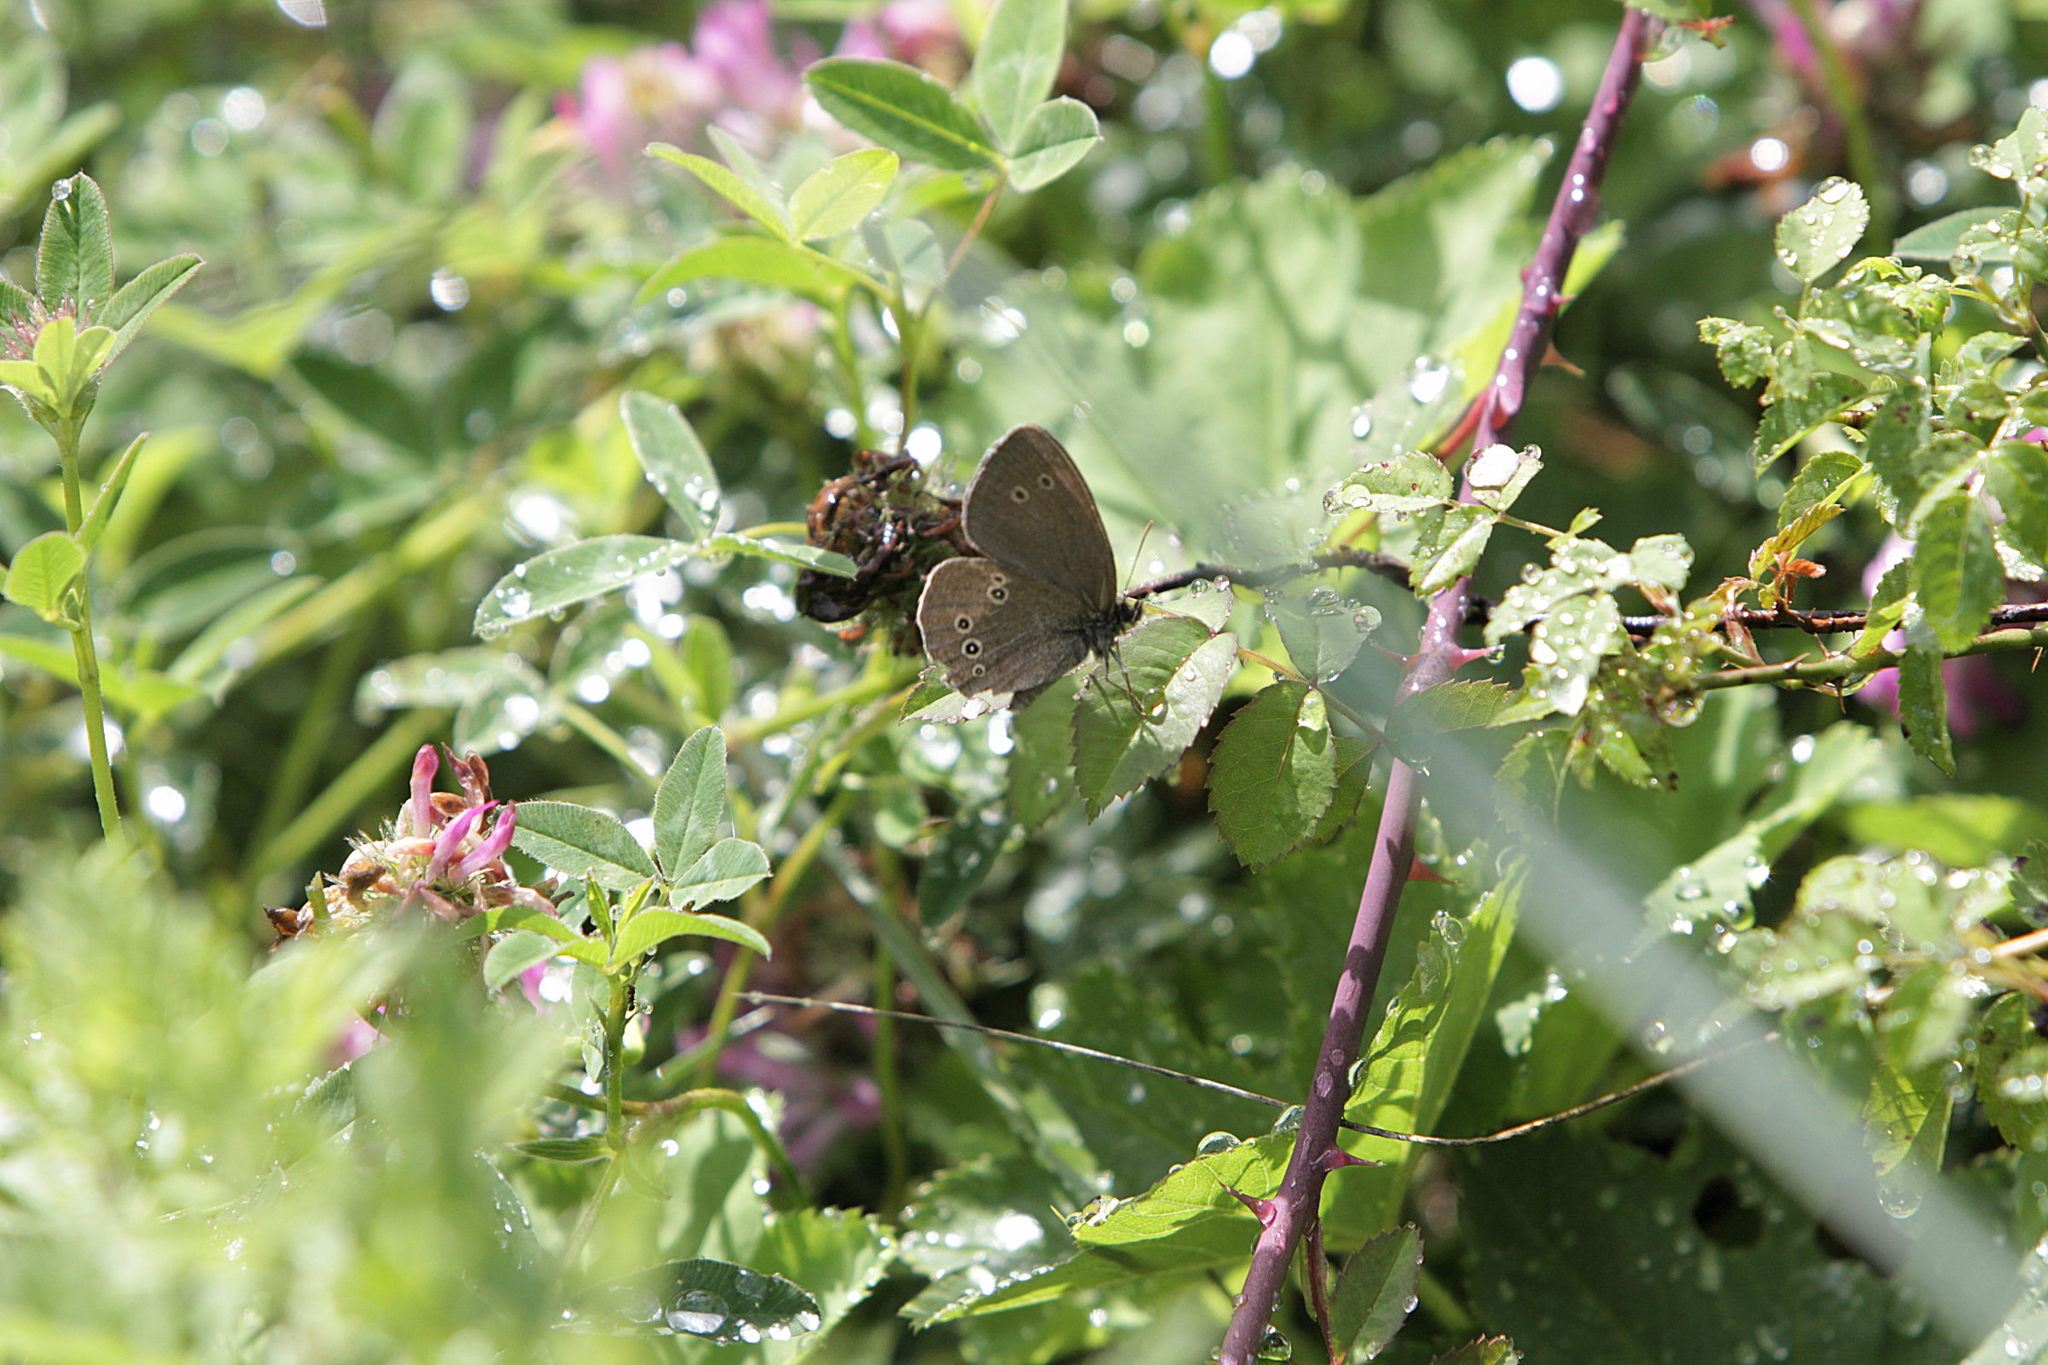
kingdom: Animalia
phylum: Arthropoda
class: Insecta
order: Lepidoptera
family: Nymphalidae
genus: Aphantopus
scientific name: Aphantopus hyperantus
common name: Ringlet
